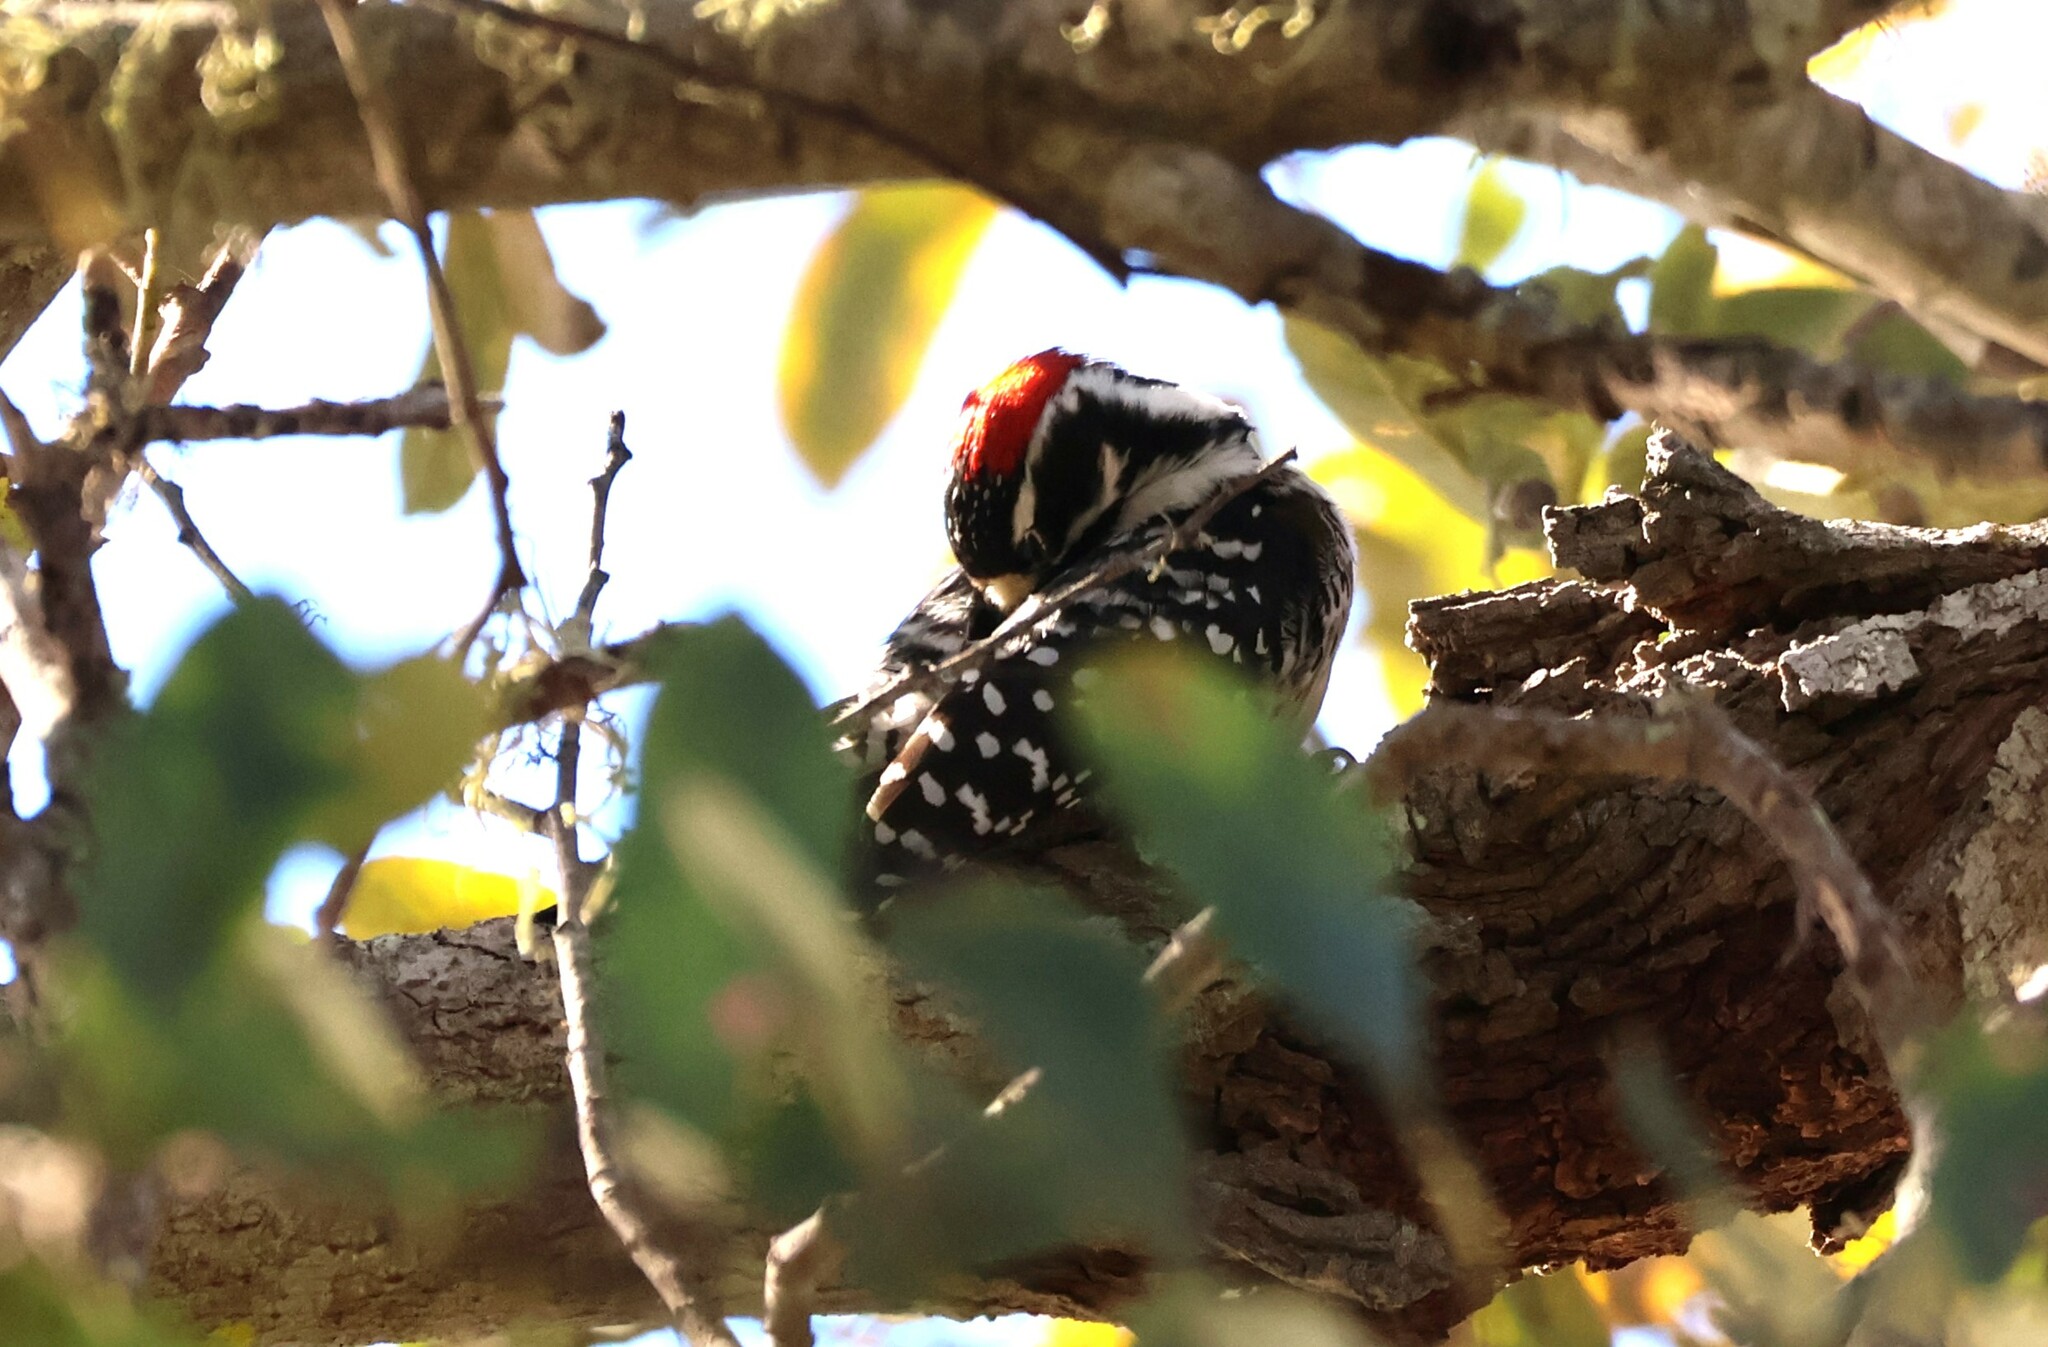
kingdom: Animalia
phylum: Chordata
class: Aves
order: Piciformes
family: Picidae
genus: Dryobates
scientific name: Dryobates nuttallii
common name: Nuttall's woodpecker
